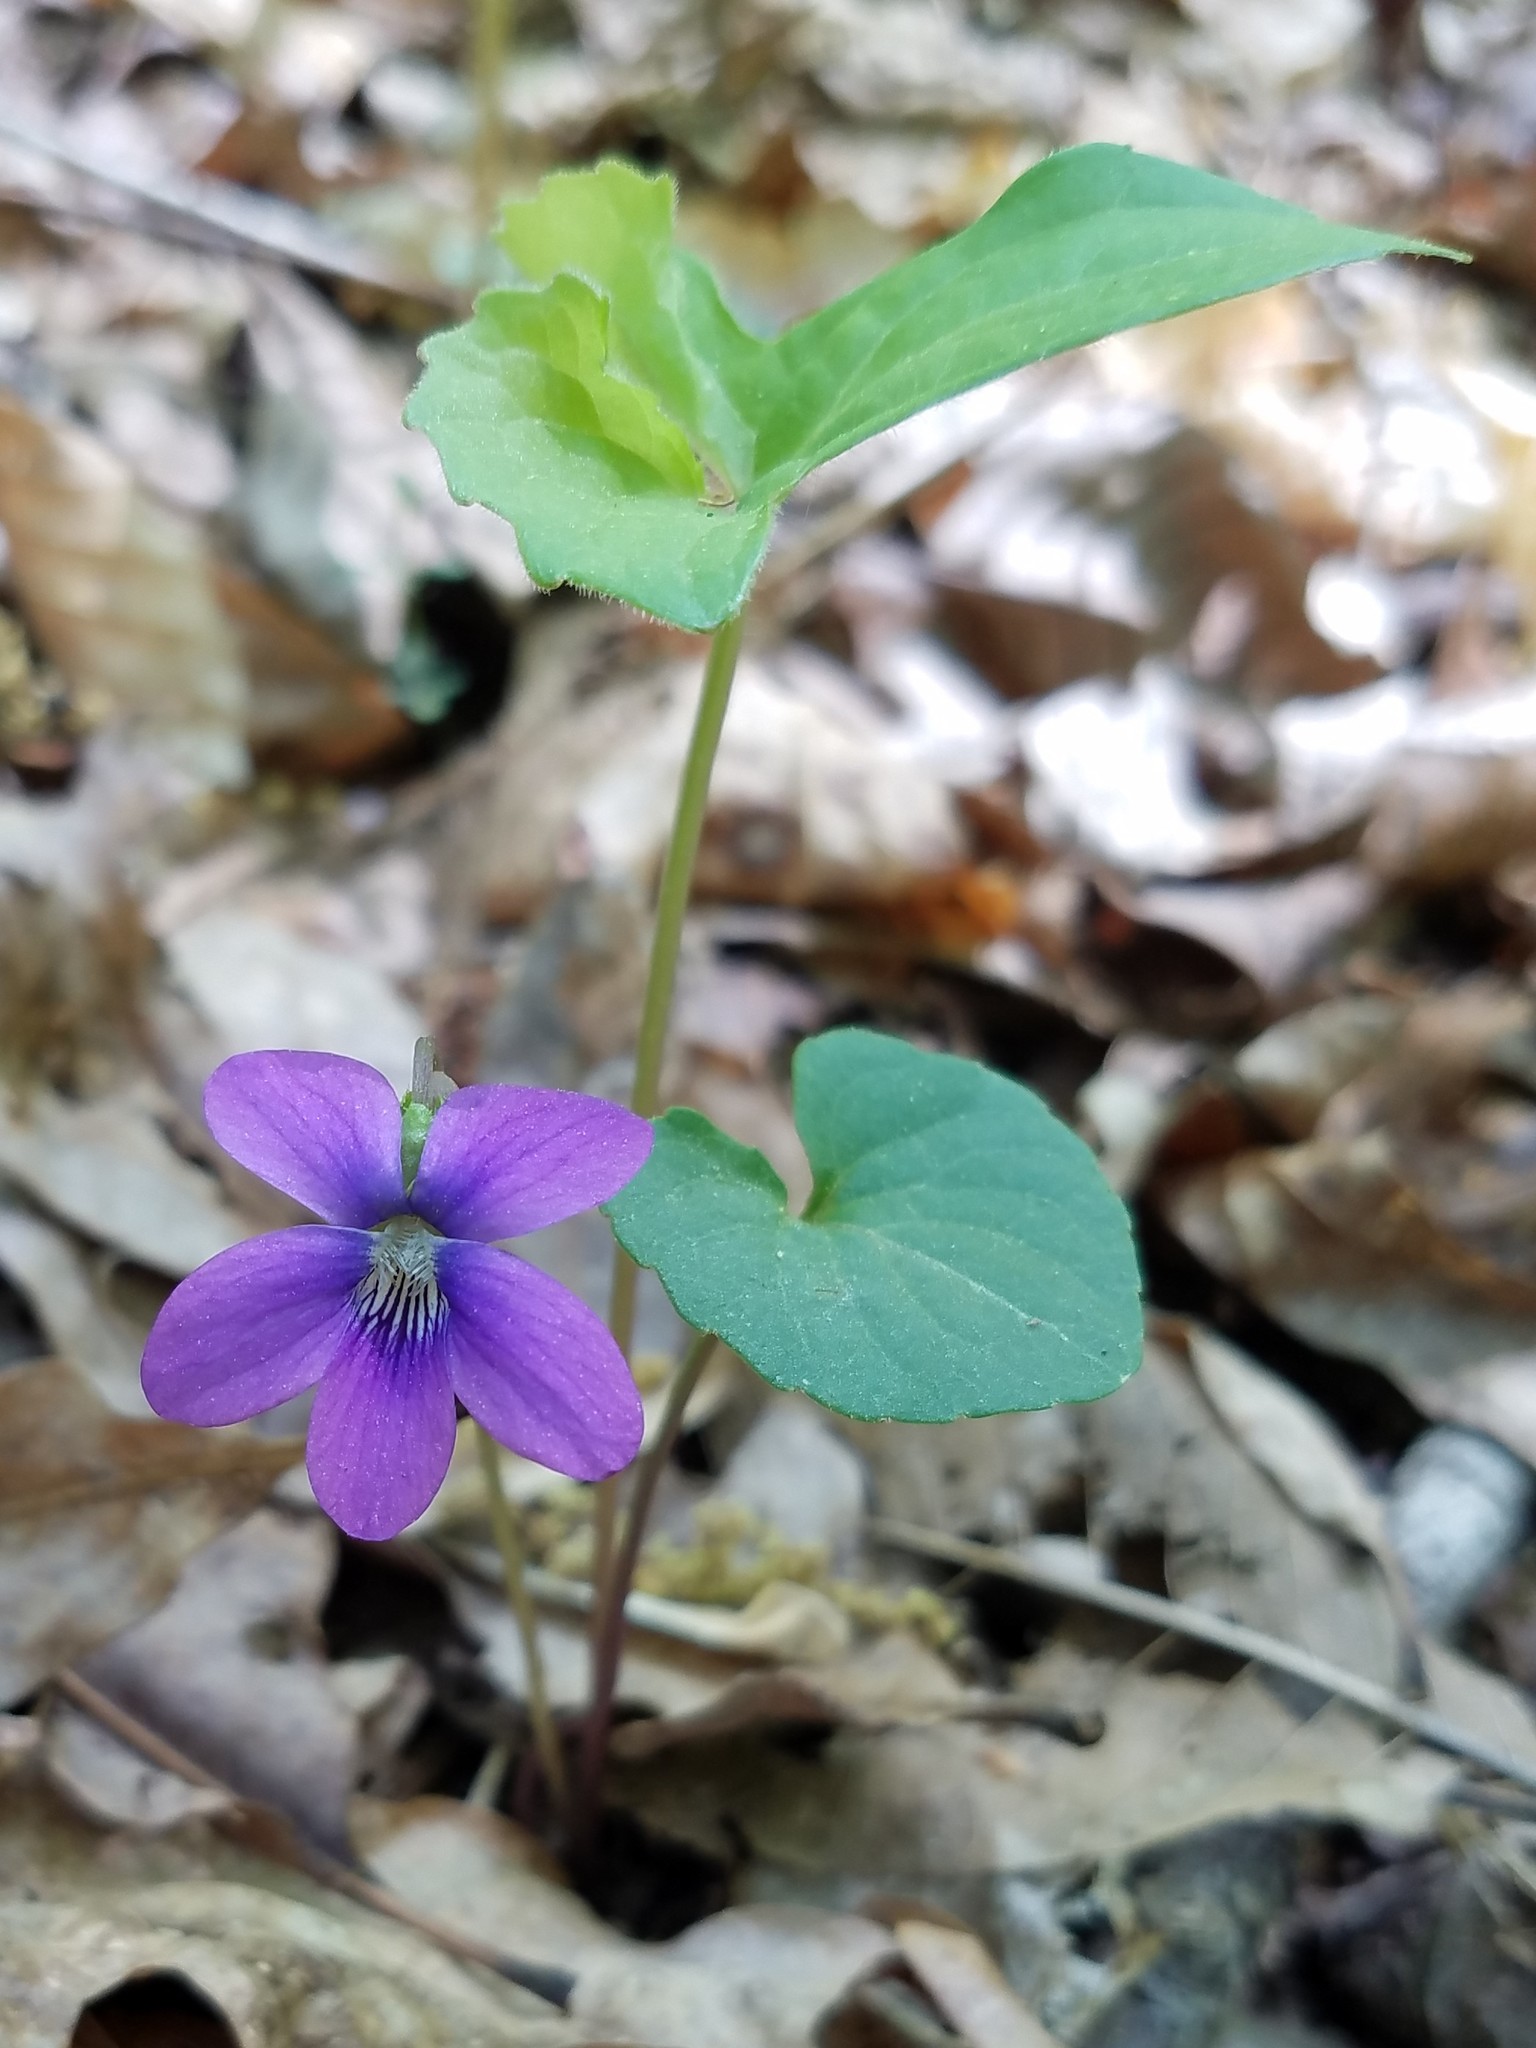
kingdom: Plantae
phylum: Tracheophyta
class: Magnoliopsida
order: Malpighiales
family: Violaceae
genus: Viola
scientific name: Viola palmata
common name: Early blue violet
